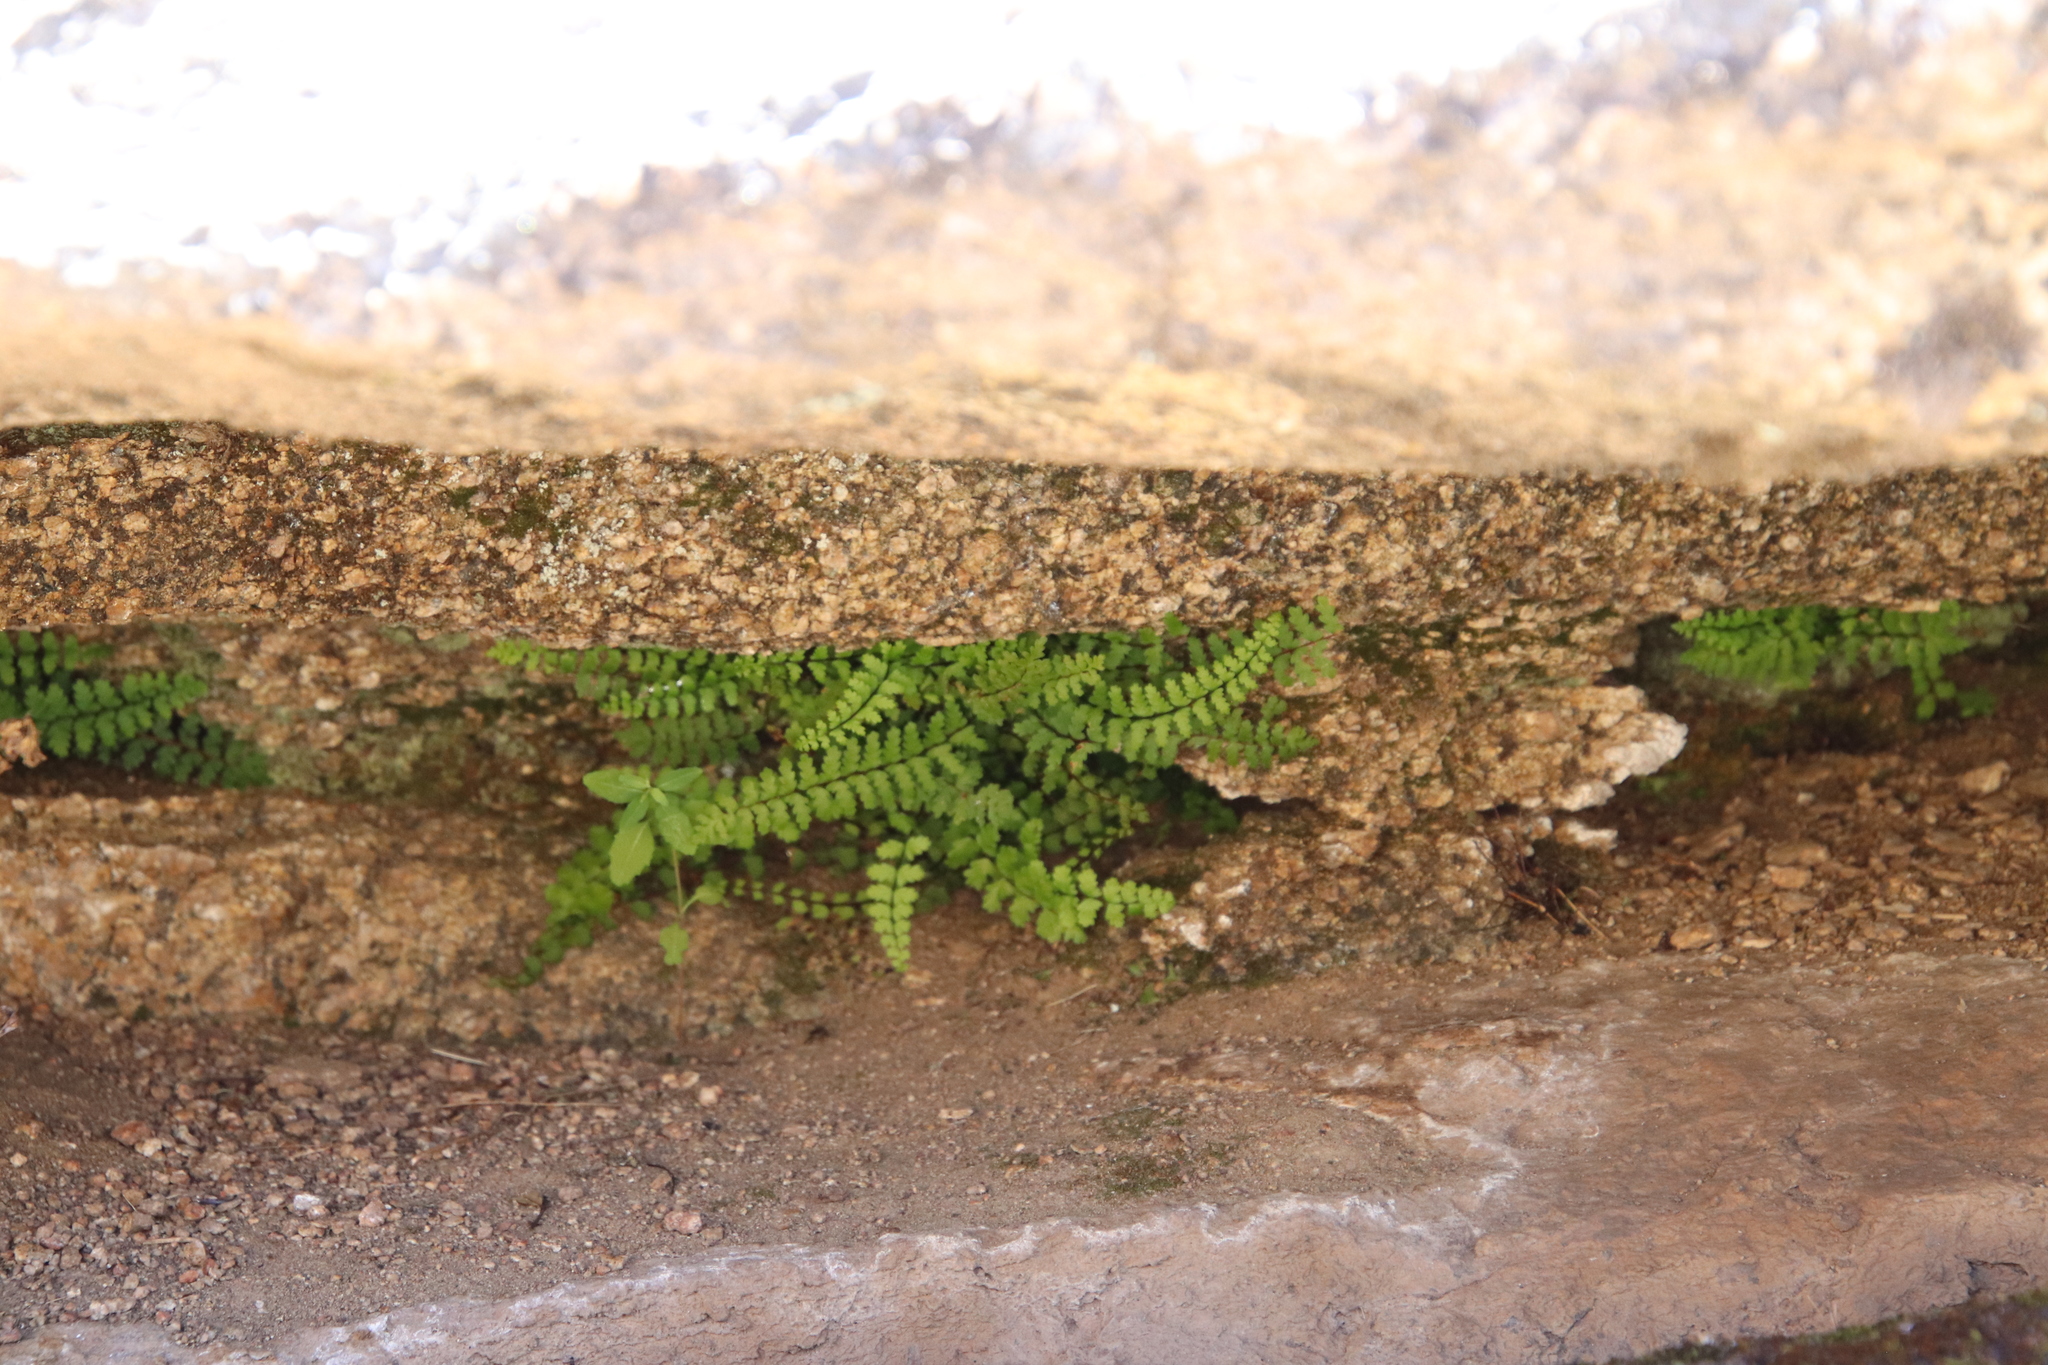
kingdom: Plantae
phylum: Tracheophyta
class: Polypodiopsida
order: Polypodiales
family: Aspleniaceae
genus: Asplenium
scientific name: Asplenium vespertinum
